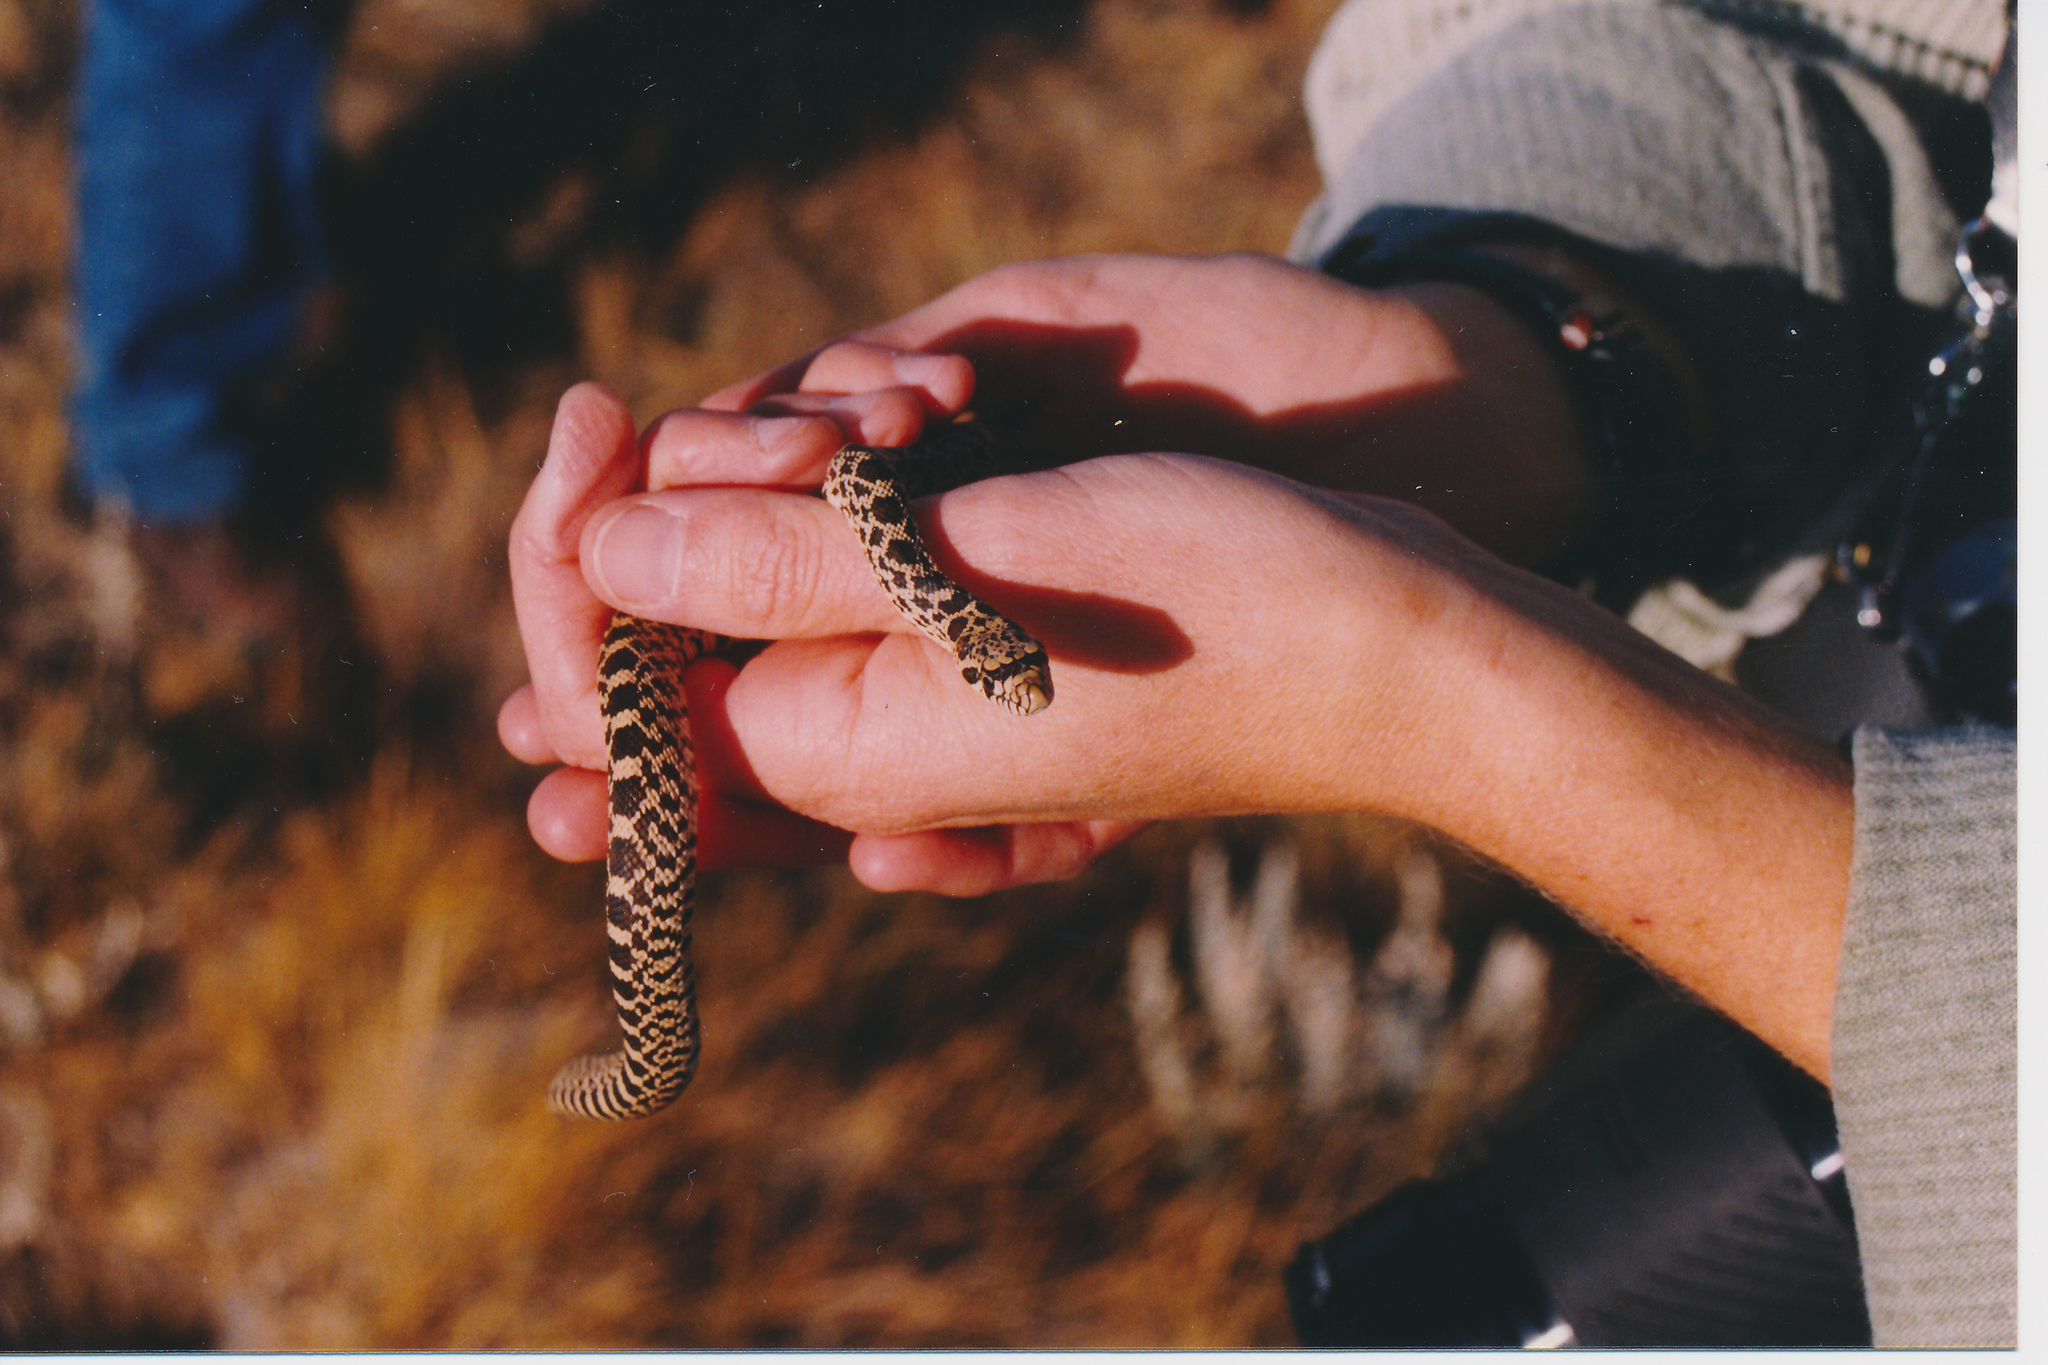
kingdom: Animalia
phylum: Chordata
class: Squamata
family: Colubridae
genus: Pituophis
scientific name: Pituophis catenifer
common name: Gopher snake
